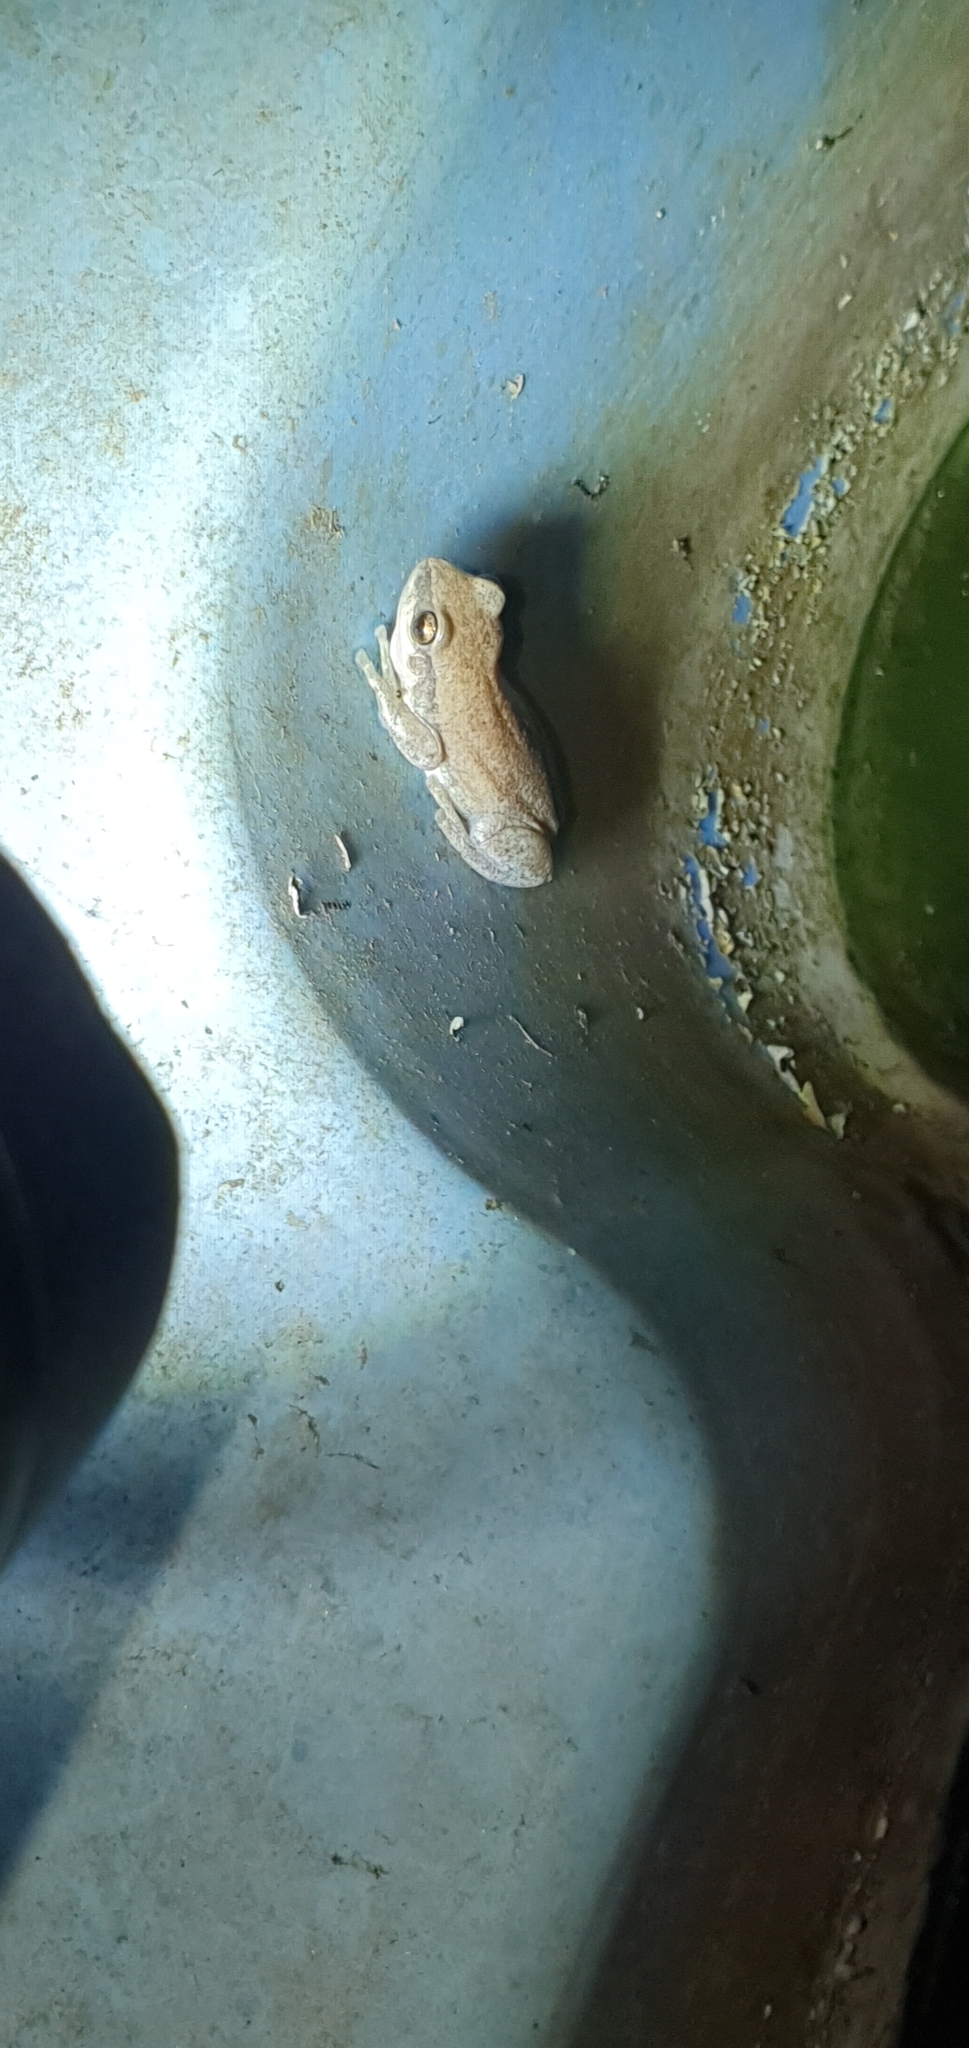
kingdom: Animalia
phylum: Chordata
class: Amphibia
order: Anura
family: Pelodryadidae
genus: Litoria
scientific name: Litoria rubella
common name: Desert tree frog
